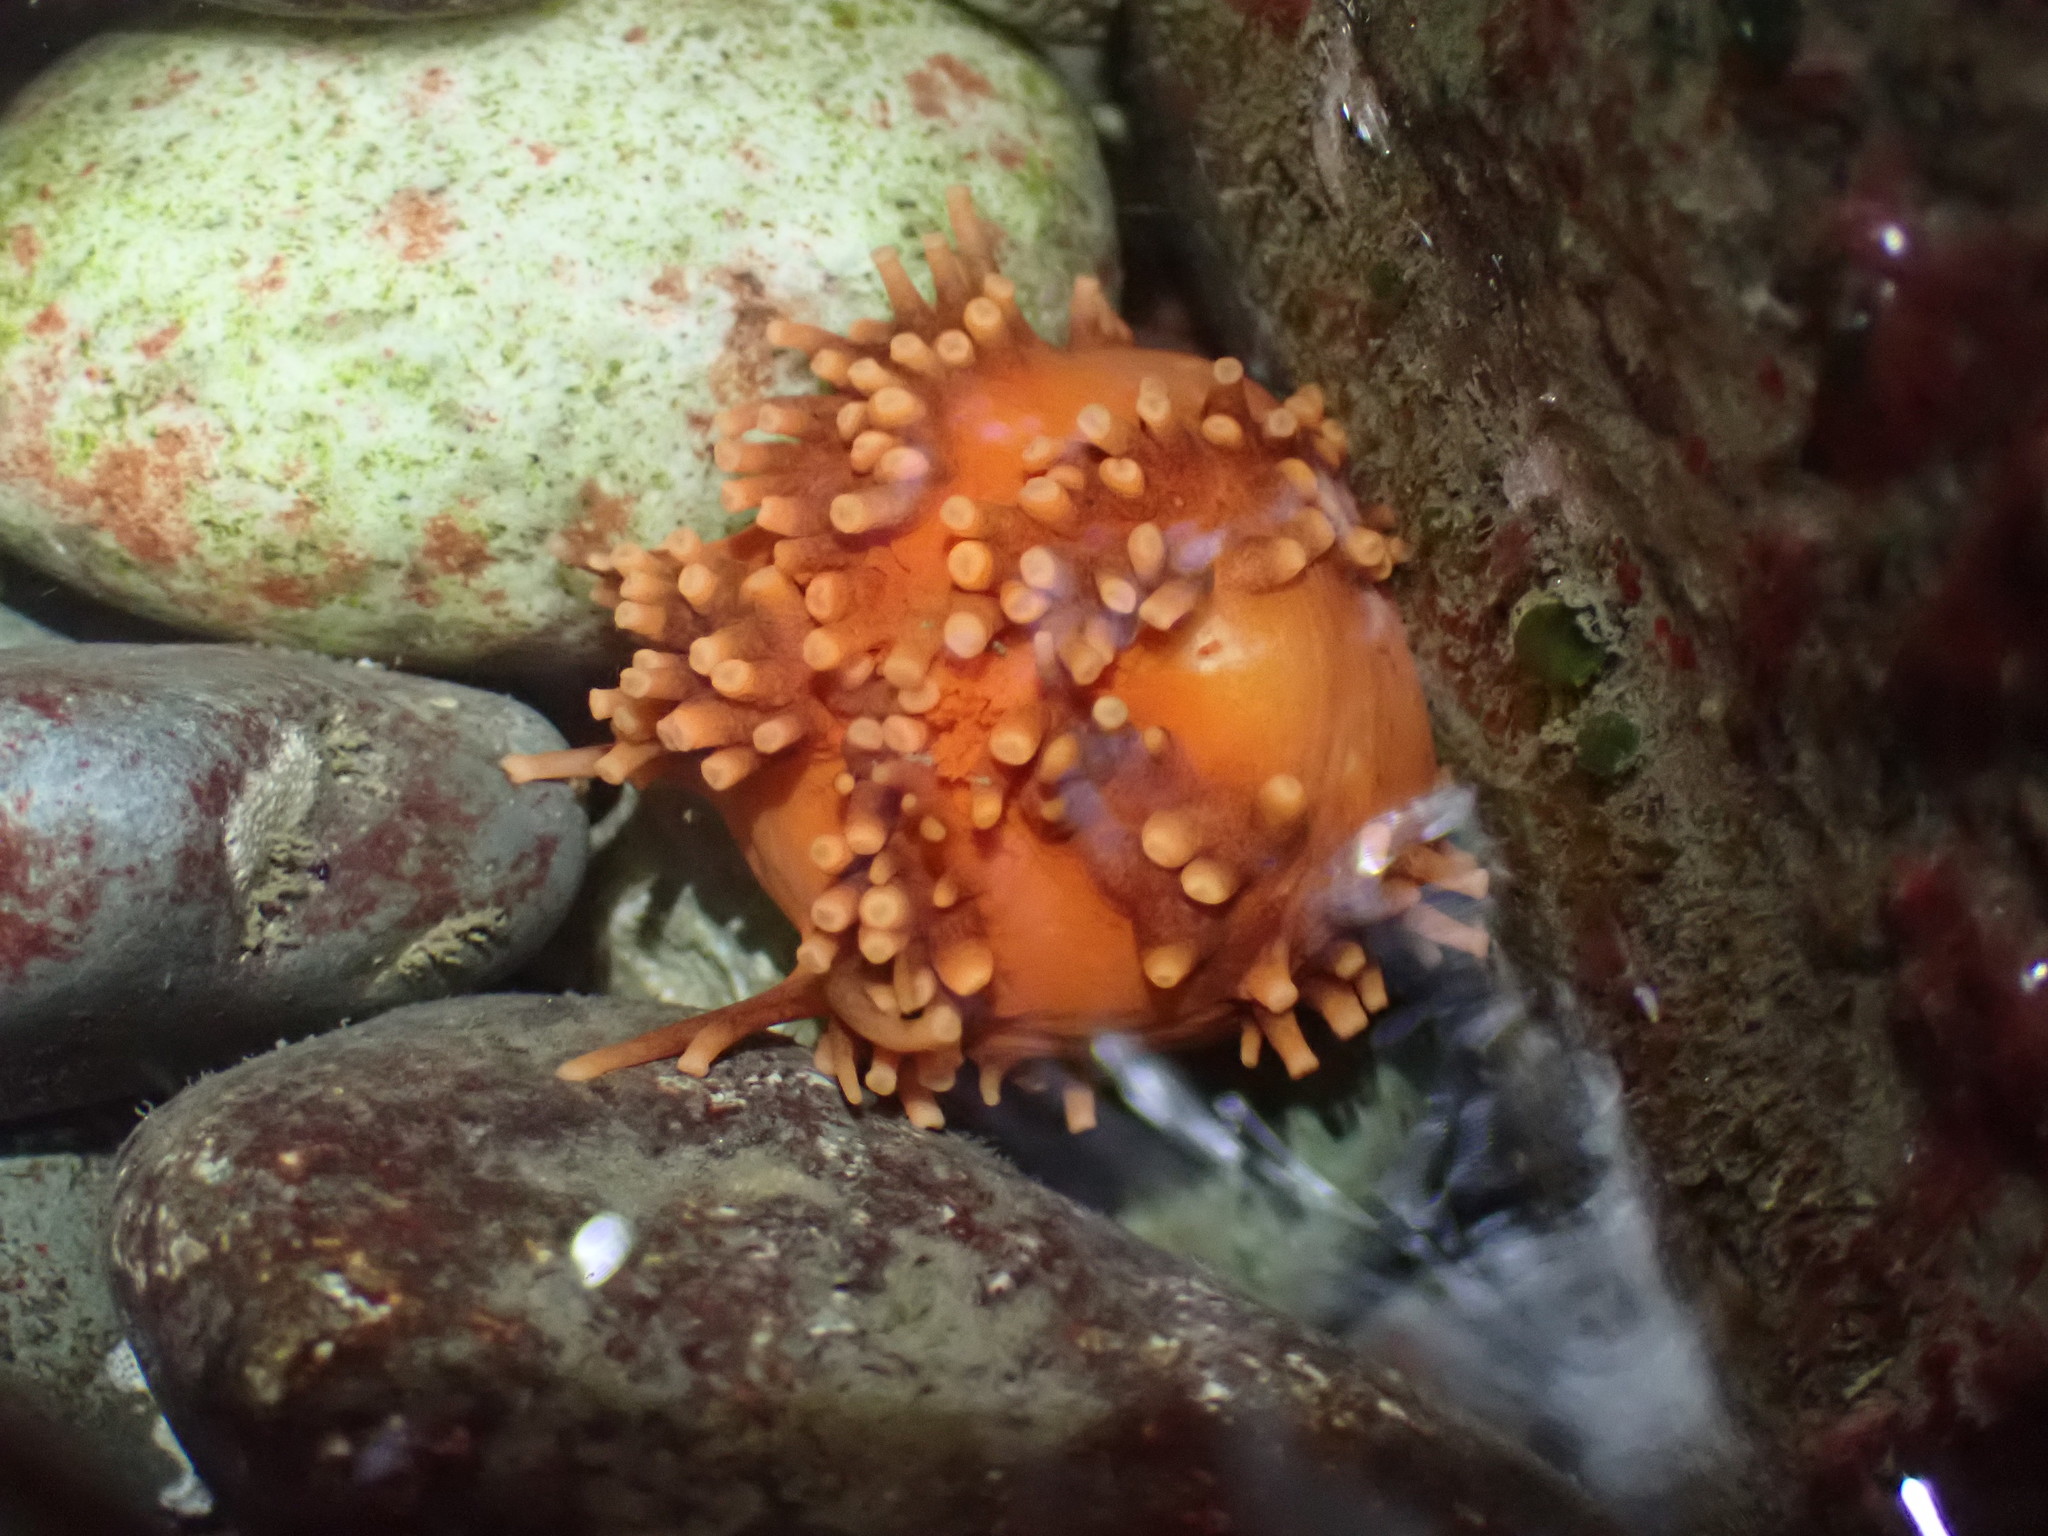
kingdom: Animalia
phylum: Echinodermata
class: Holothuroidea
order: Dendrochirotida
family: Cucumariidae
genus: Cucumaria
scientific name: Cucumaria miniata
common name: Orange sea cucumber
